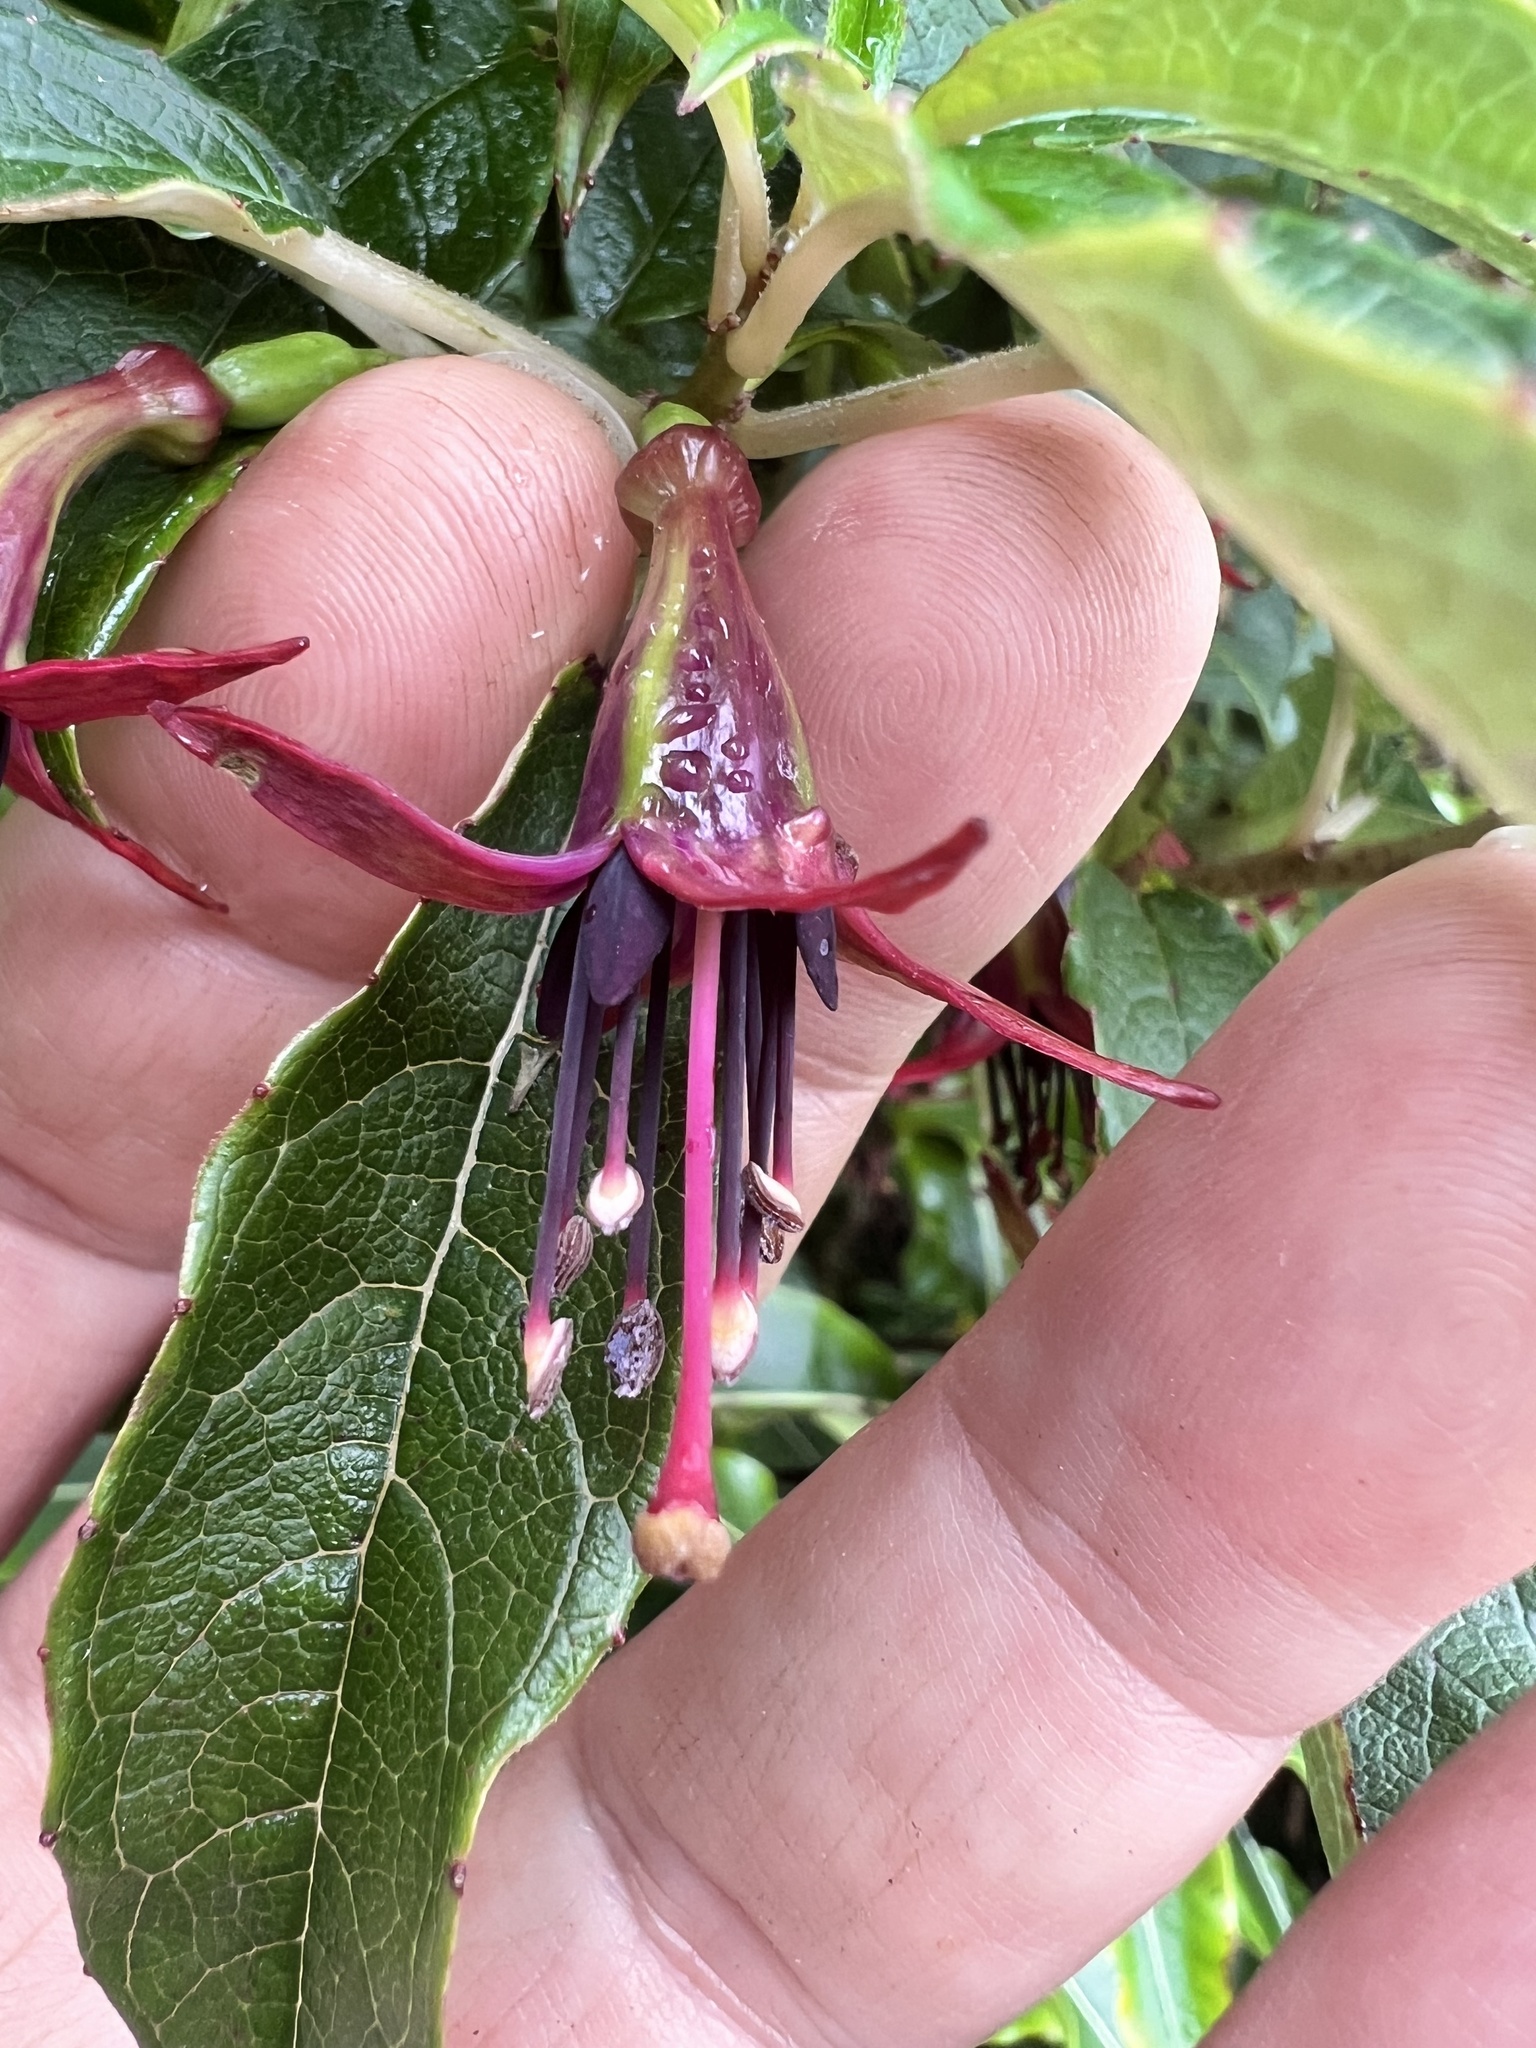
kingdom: Plantae
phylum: Tracheophyta
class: Magnoliopsida
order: Myrtales
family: Onagraceae
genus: Fuchsia
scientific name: Fuchsia excorticata
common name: Tree fuchsia
